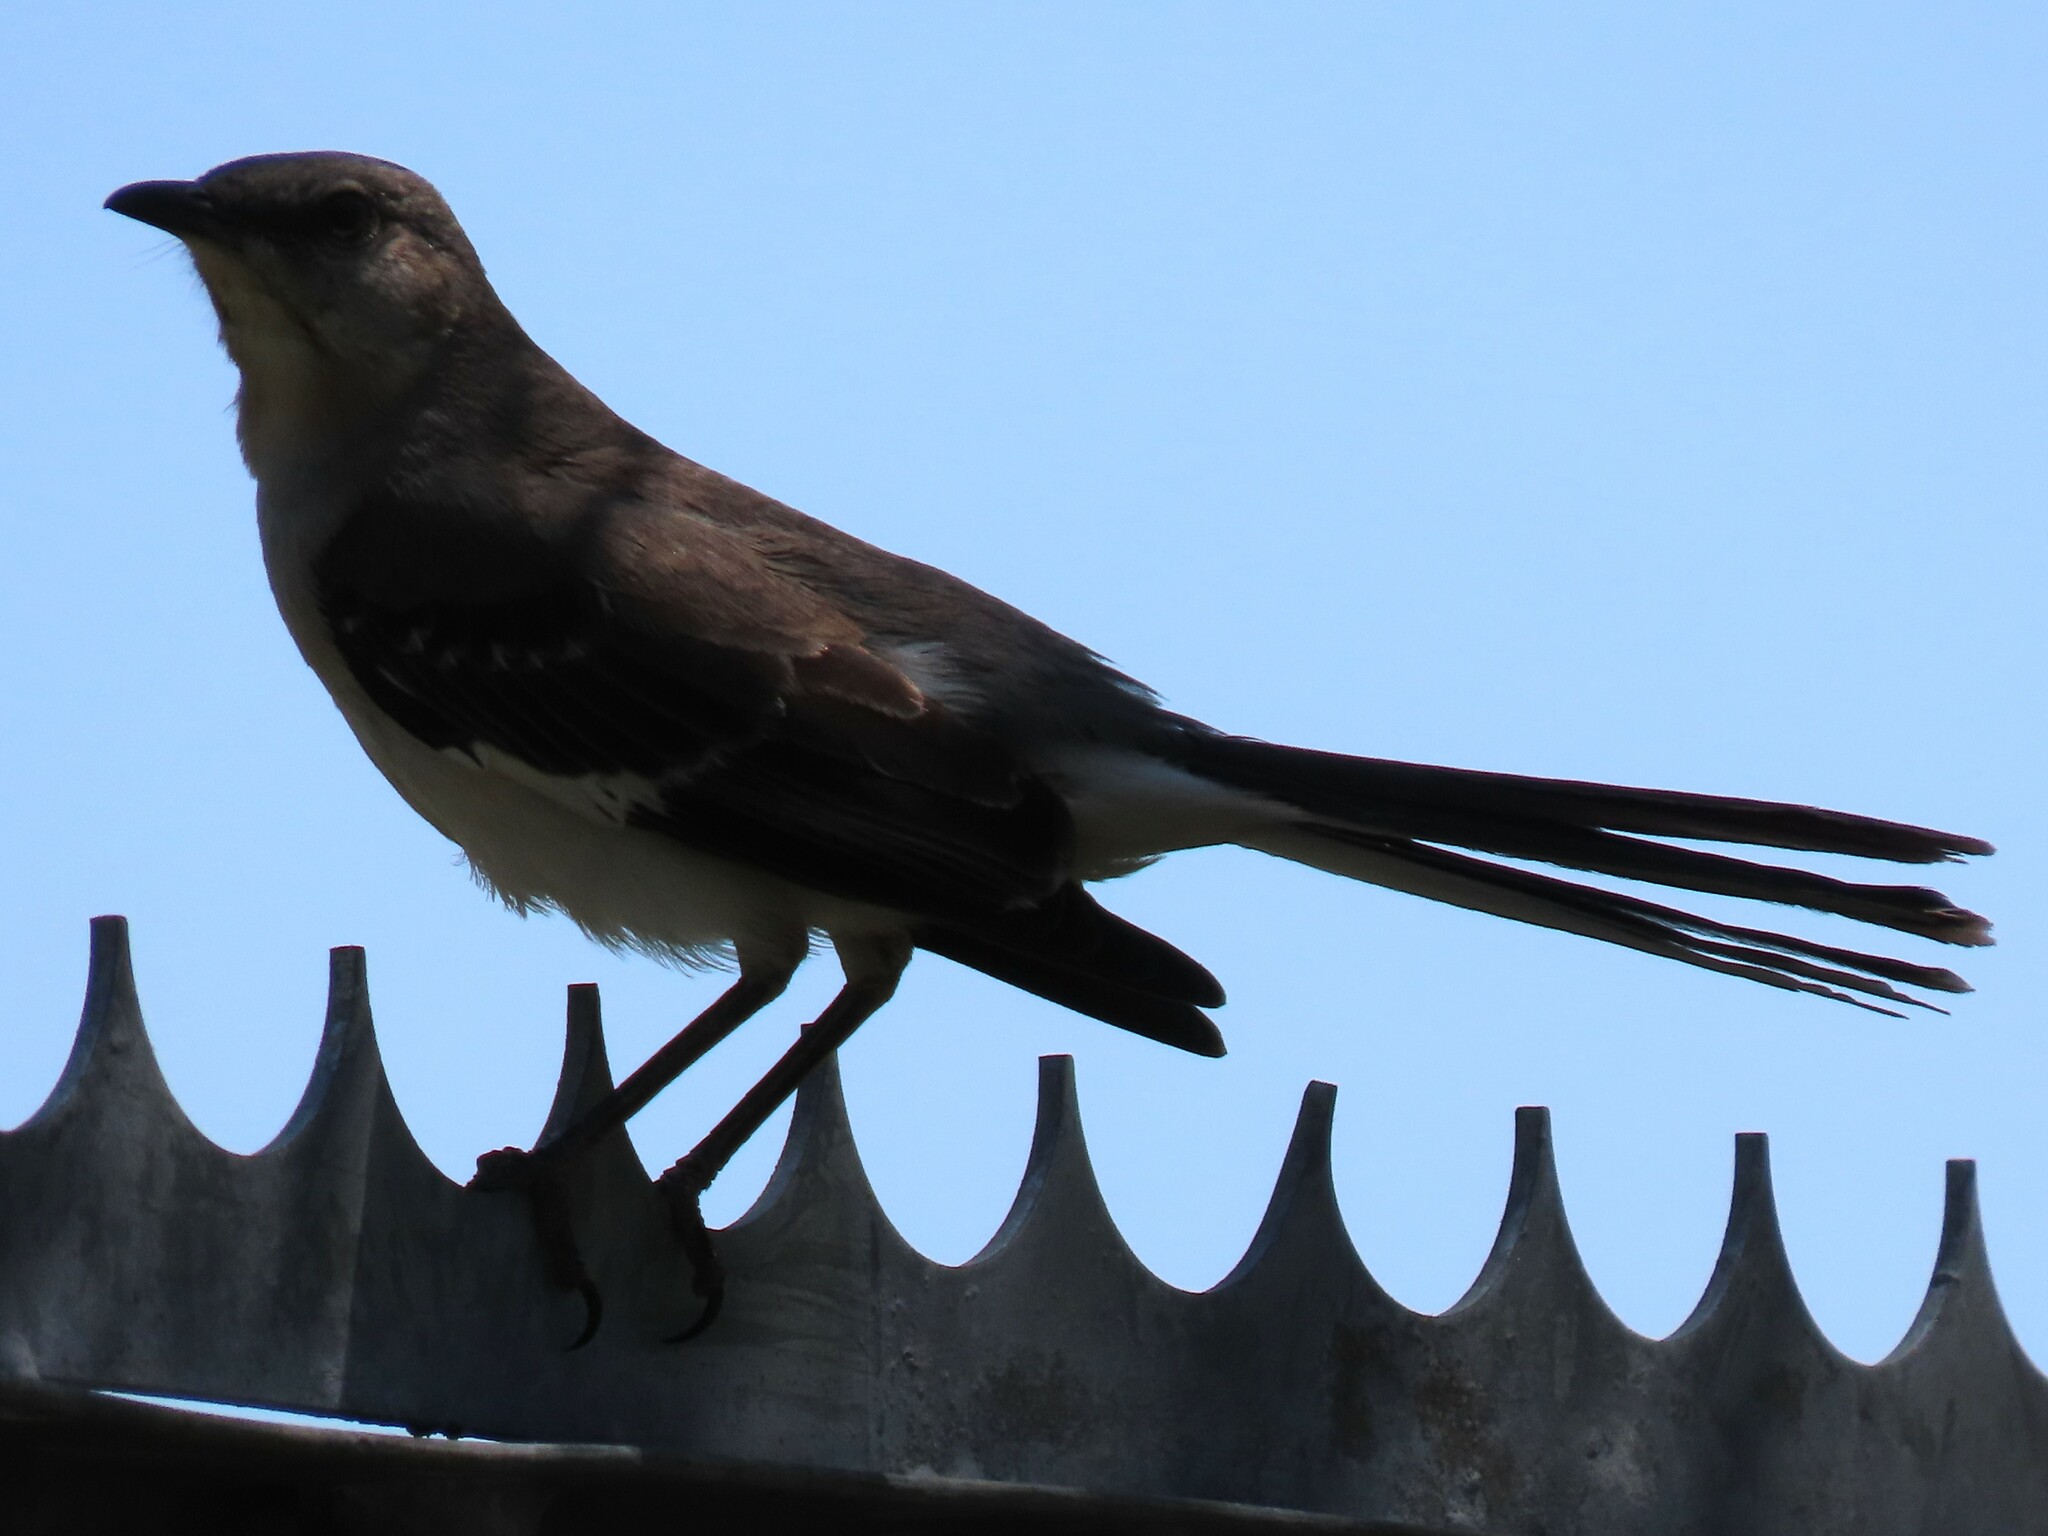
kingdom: Animalia
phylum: Chordata
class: Aves
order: Passeriformes
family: Mimidae
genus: Mimus
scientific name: Mimus polyglottos
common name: Northern mockingbird
